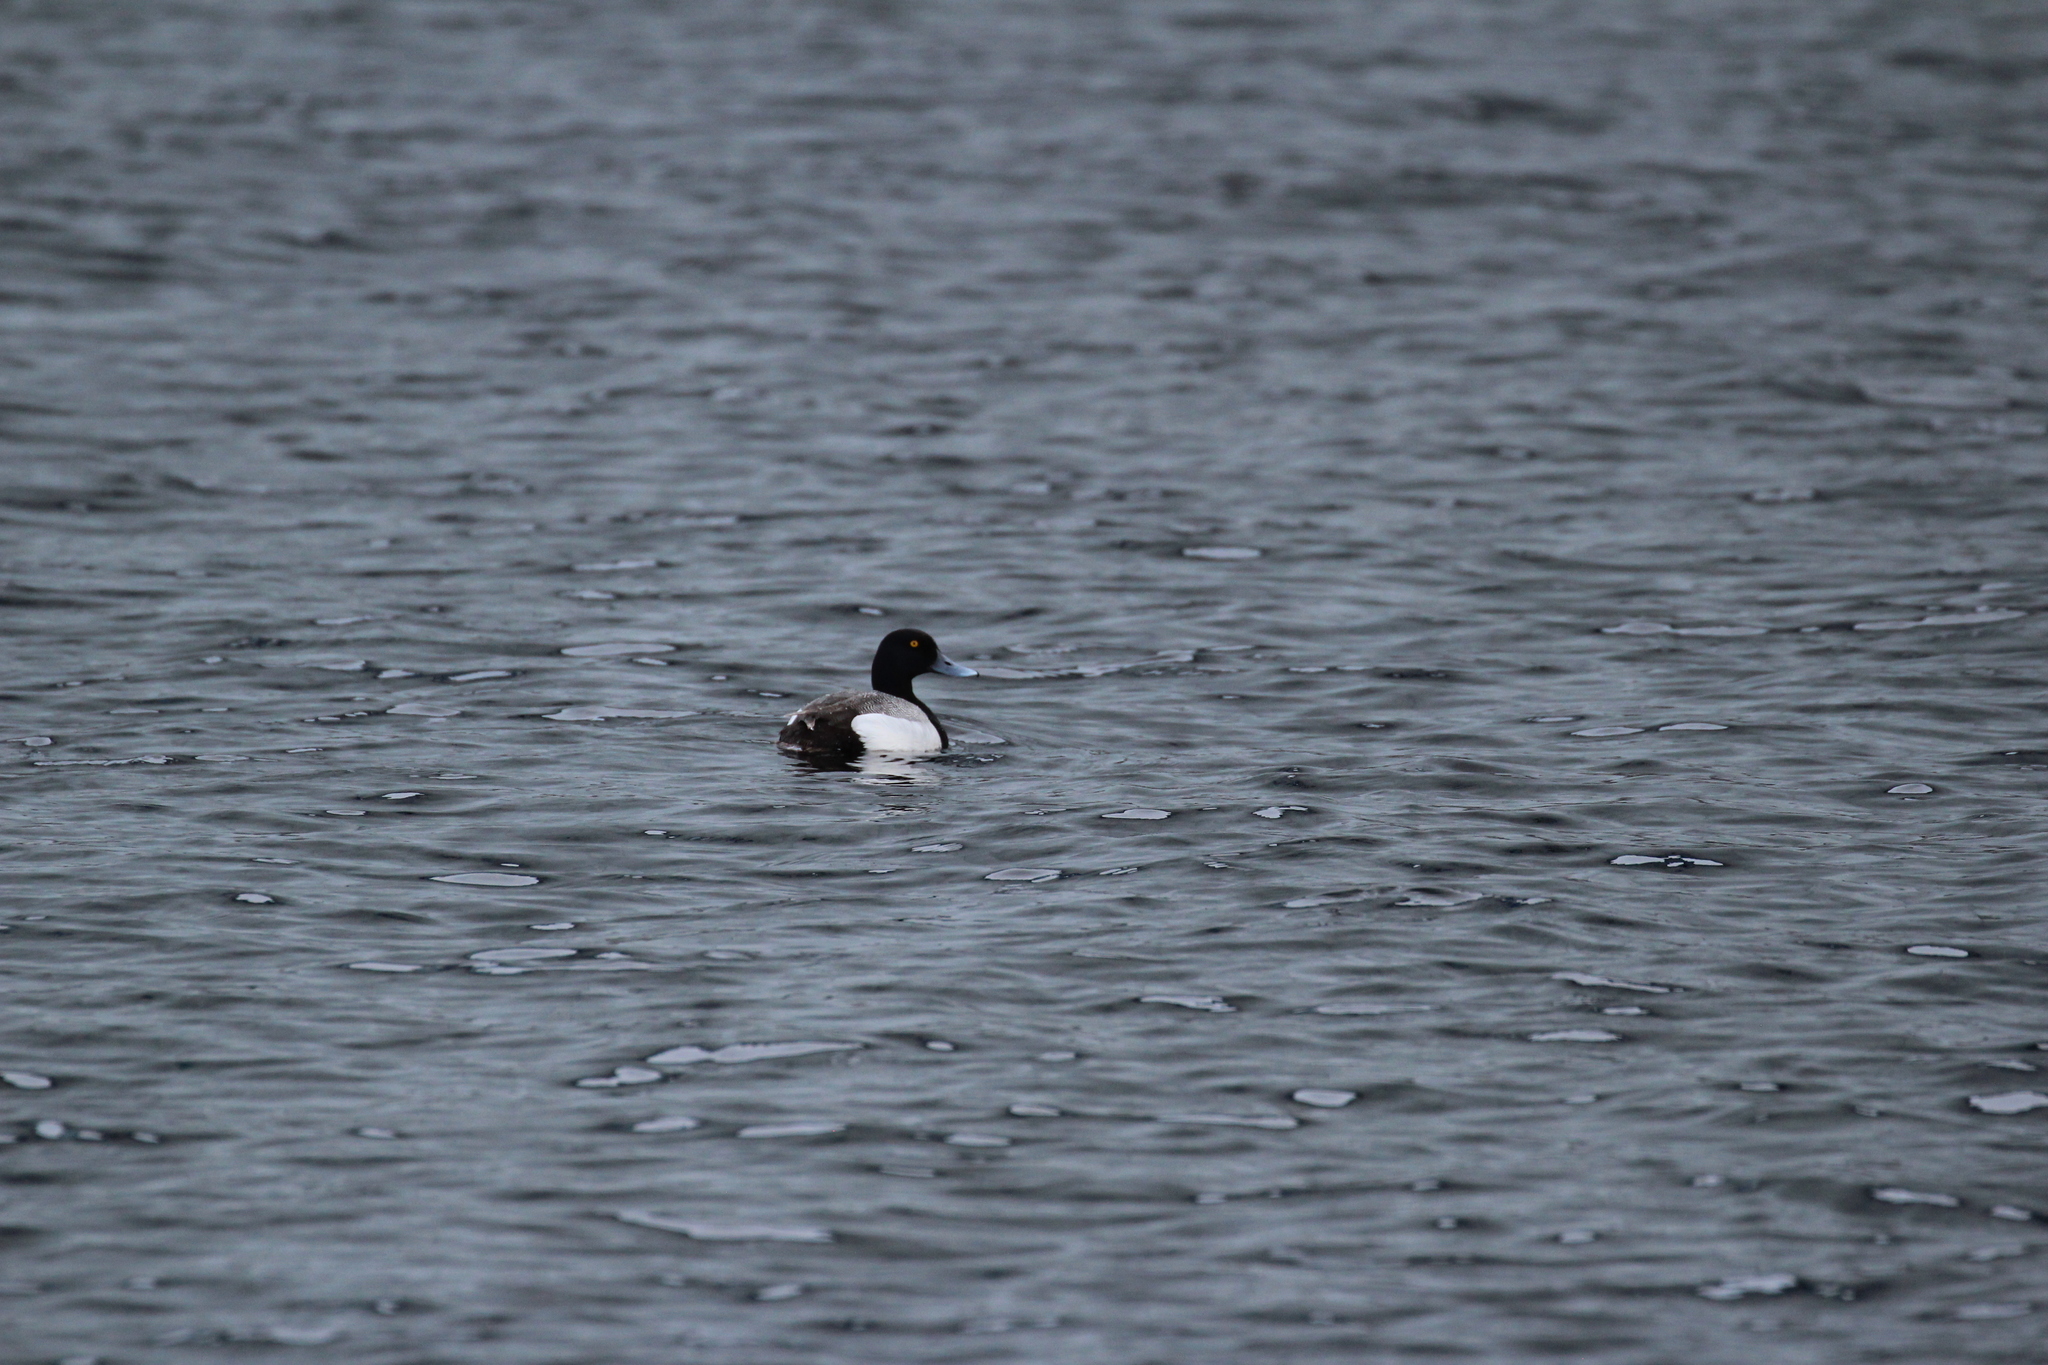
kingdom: Animalia
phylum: Chordata
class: Aves
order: Anseriformes
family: Anatidae
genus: Aythya
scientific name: Aythya marila
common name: Greater scaup
